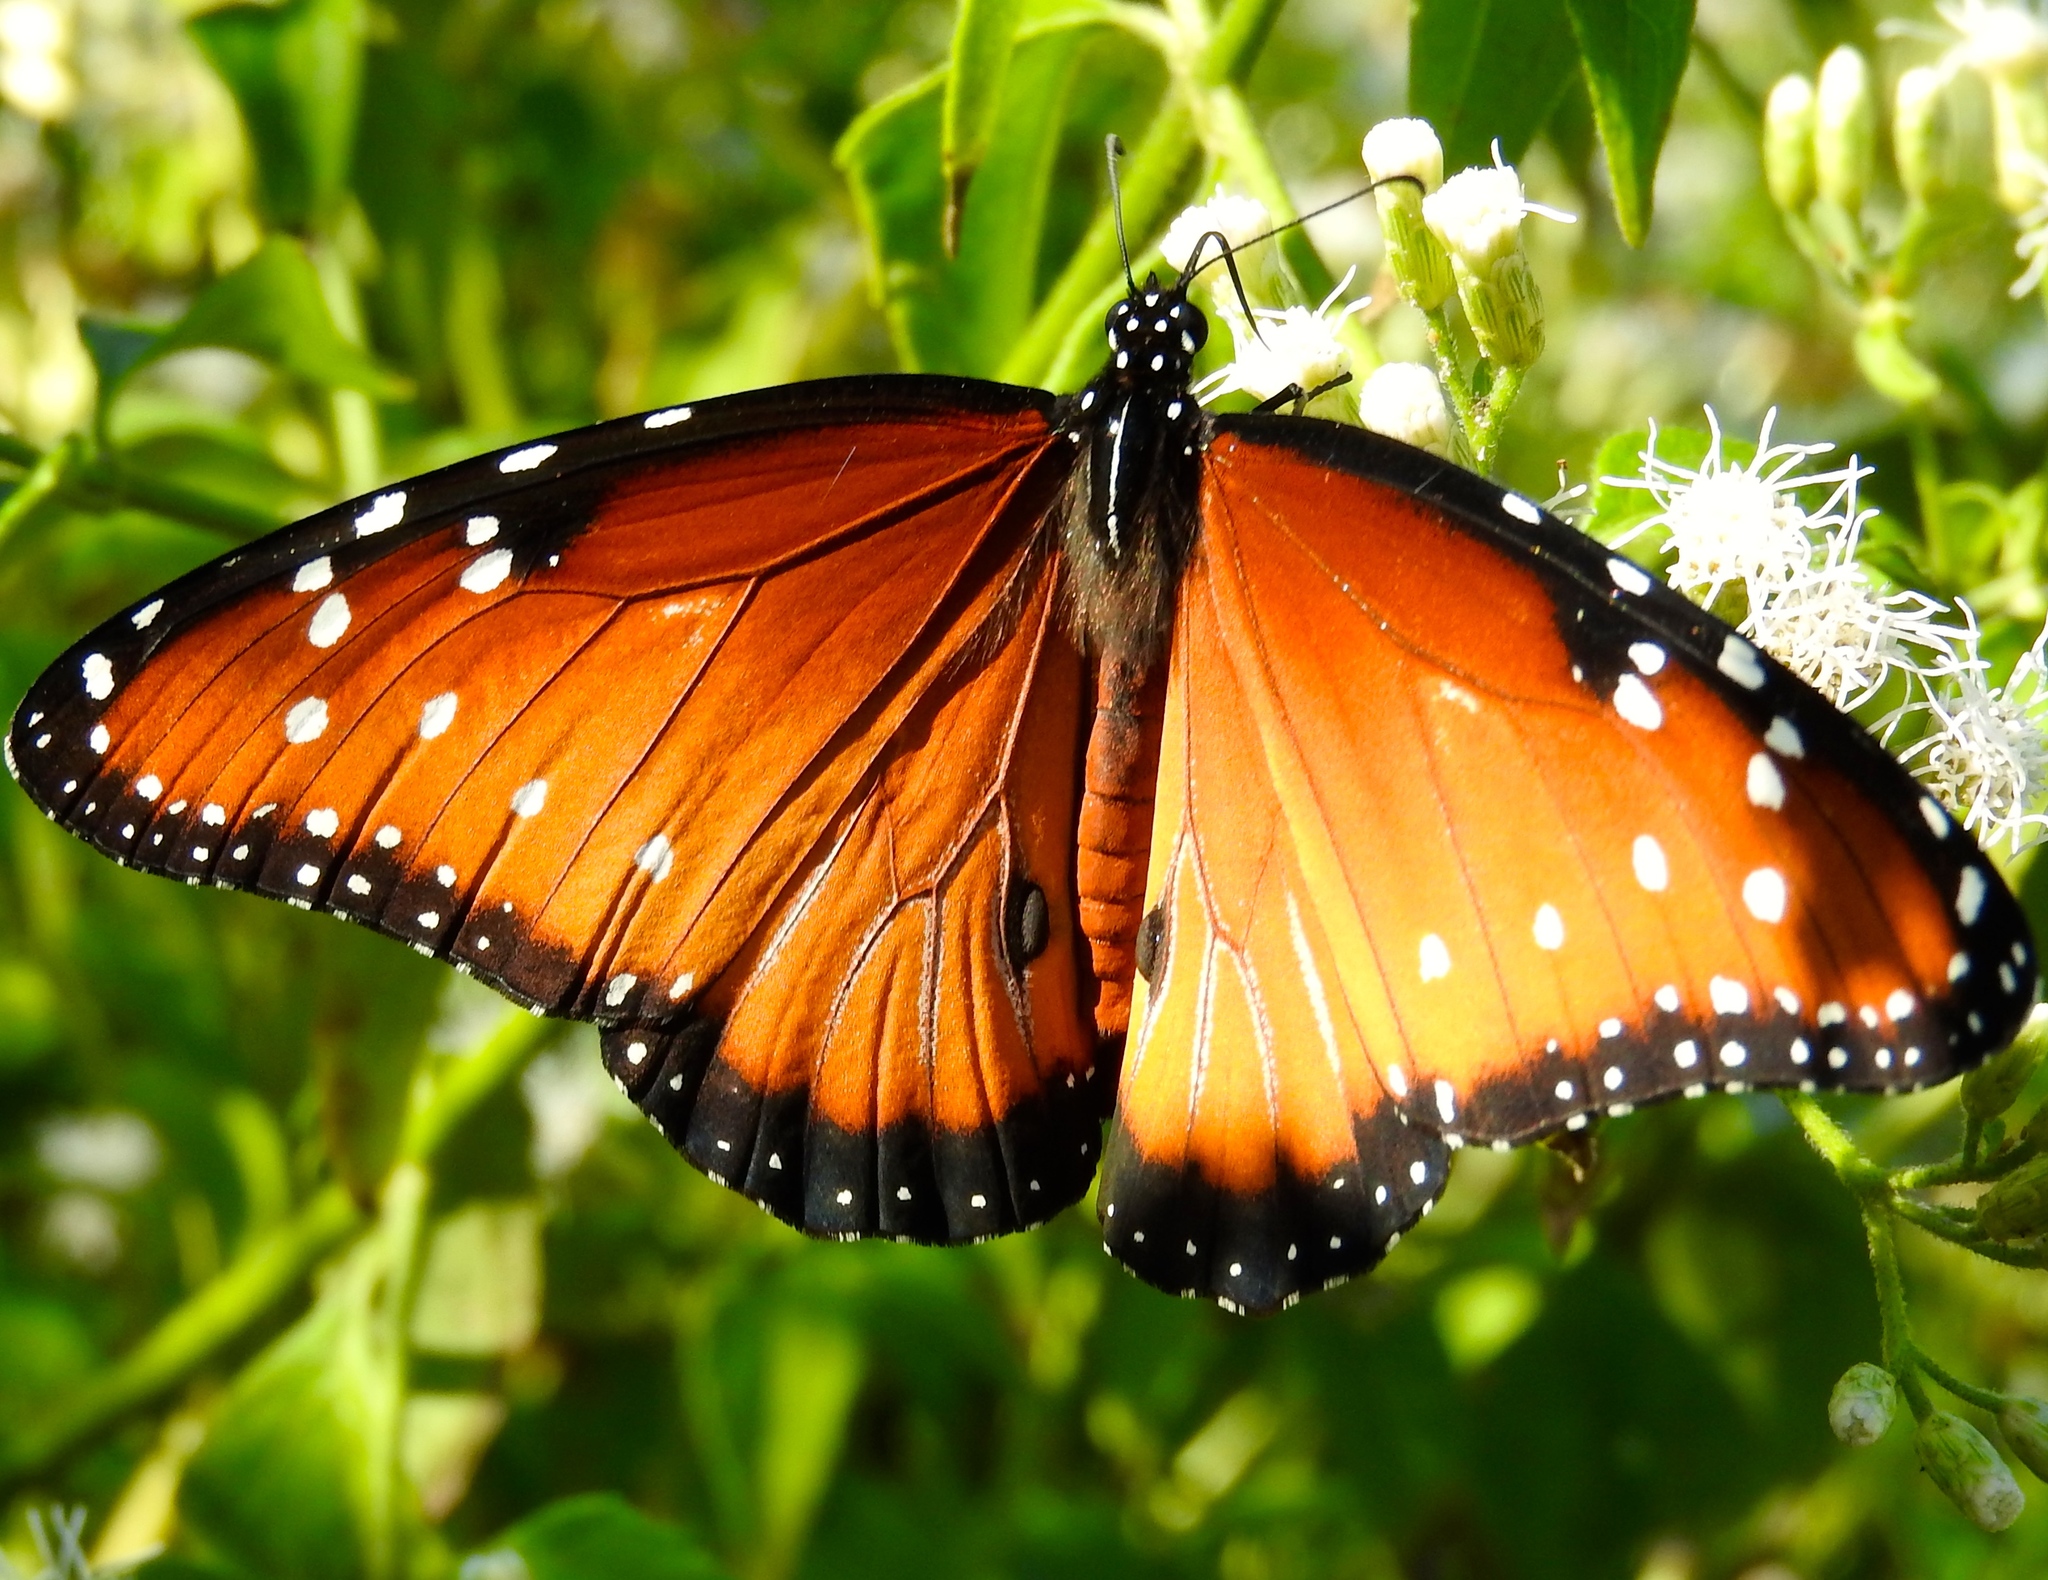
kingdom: Animalia
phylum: Arthropoda
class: Insecta
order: Lepidoptera
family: Nymphalidae
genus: Danaus
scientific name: Danaus gilippus
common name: Queen
